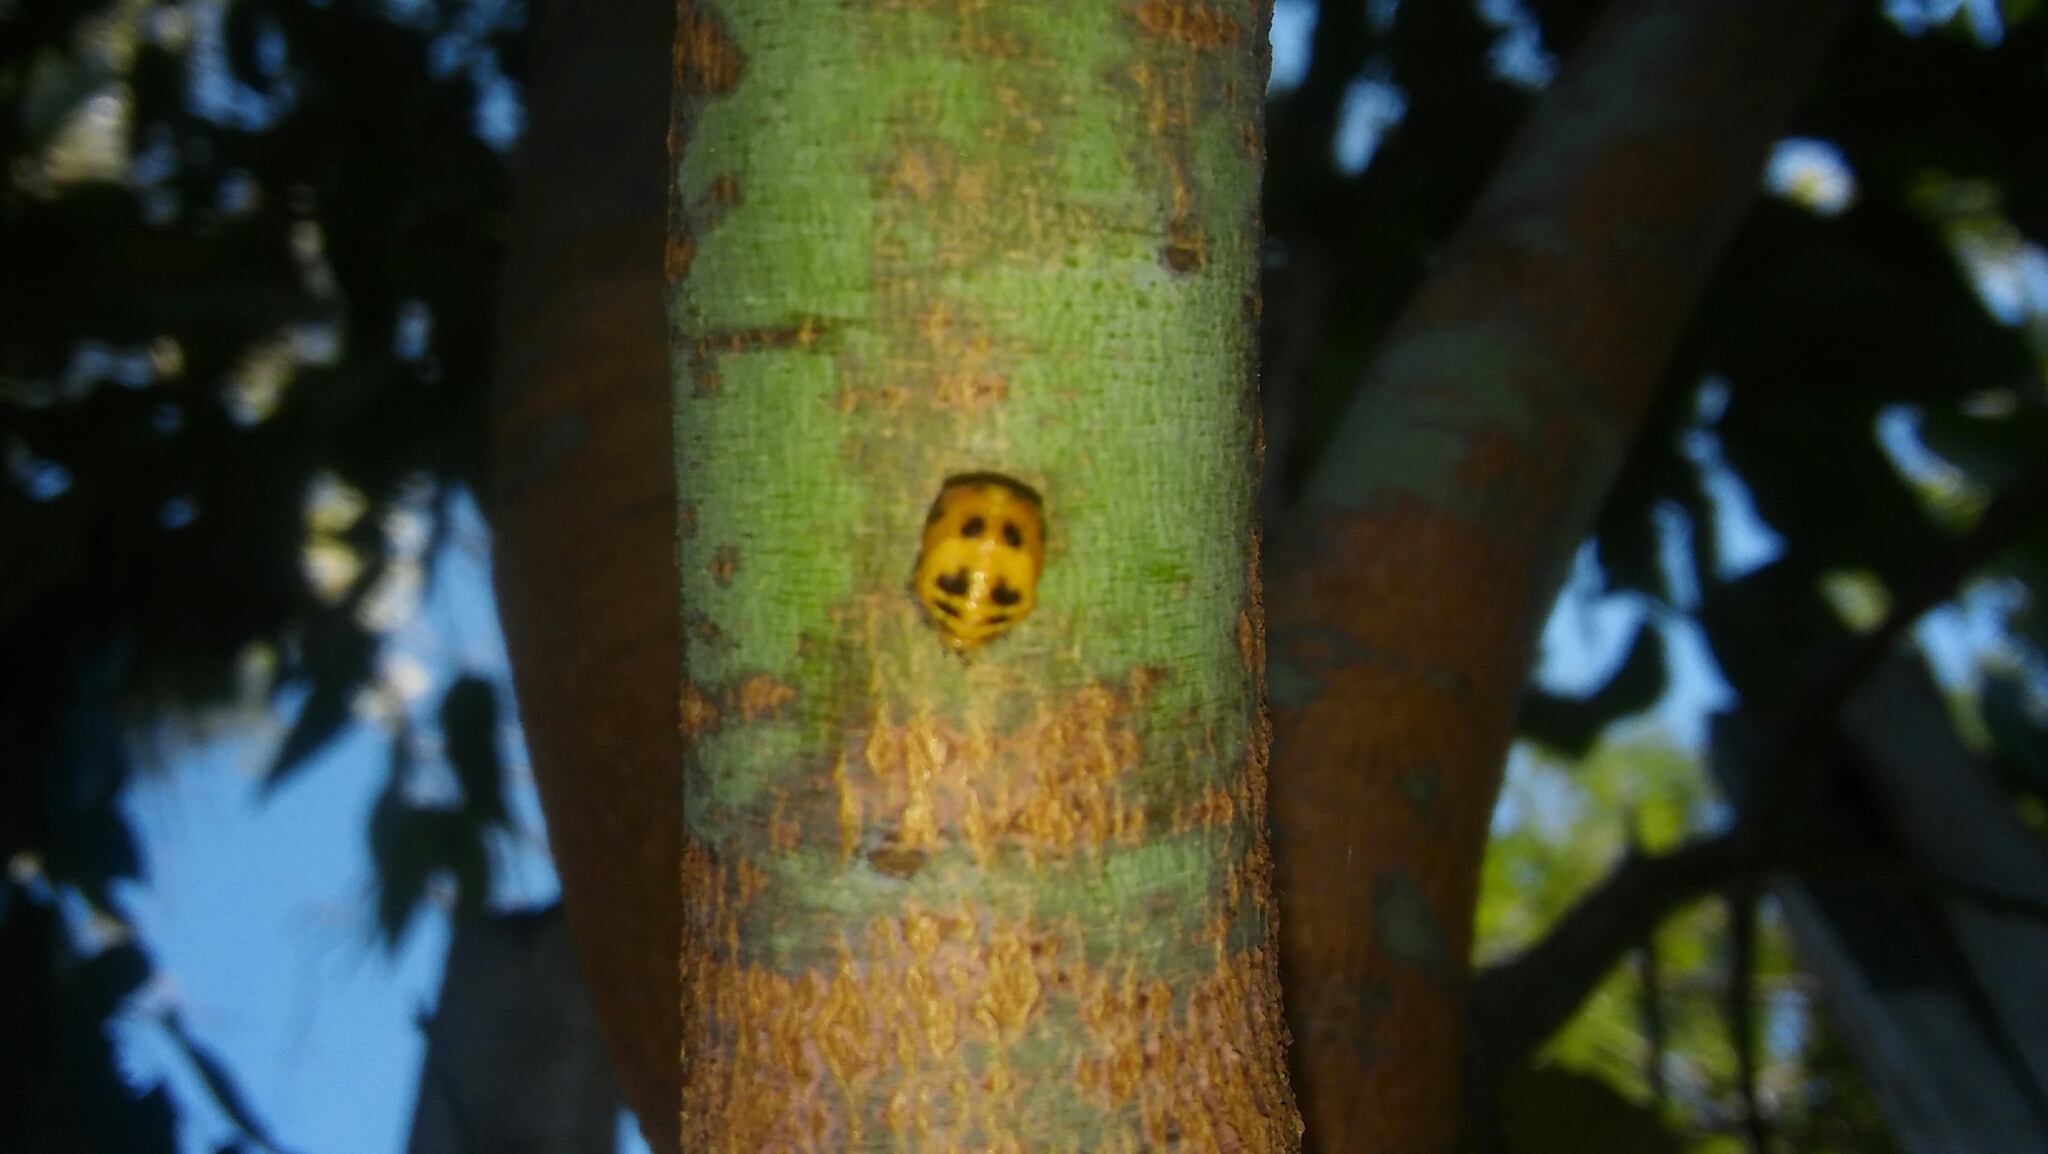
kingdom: Animalia
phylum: Arthropoda
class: Insecta
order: Coleoptera
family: Coccinellidae
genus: Harmonia
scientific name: Harmonia axyridis
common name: Harlequin ladybird
